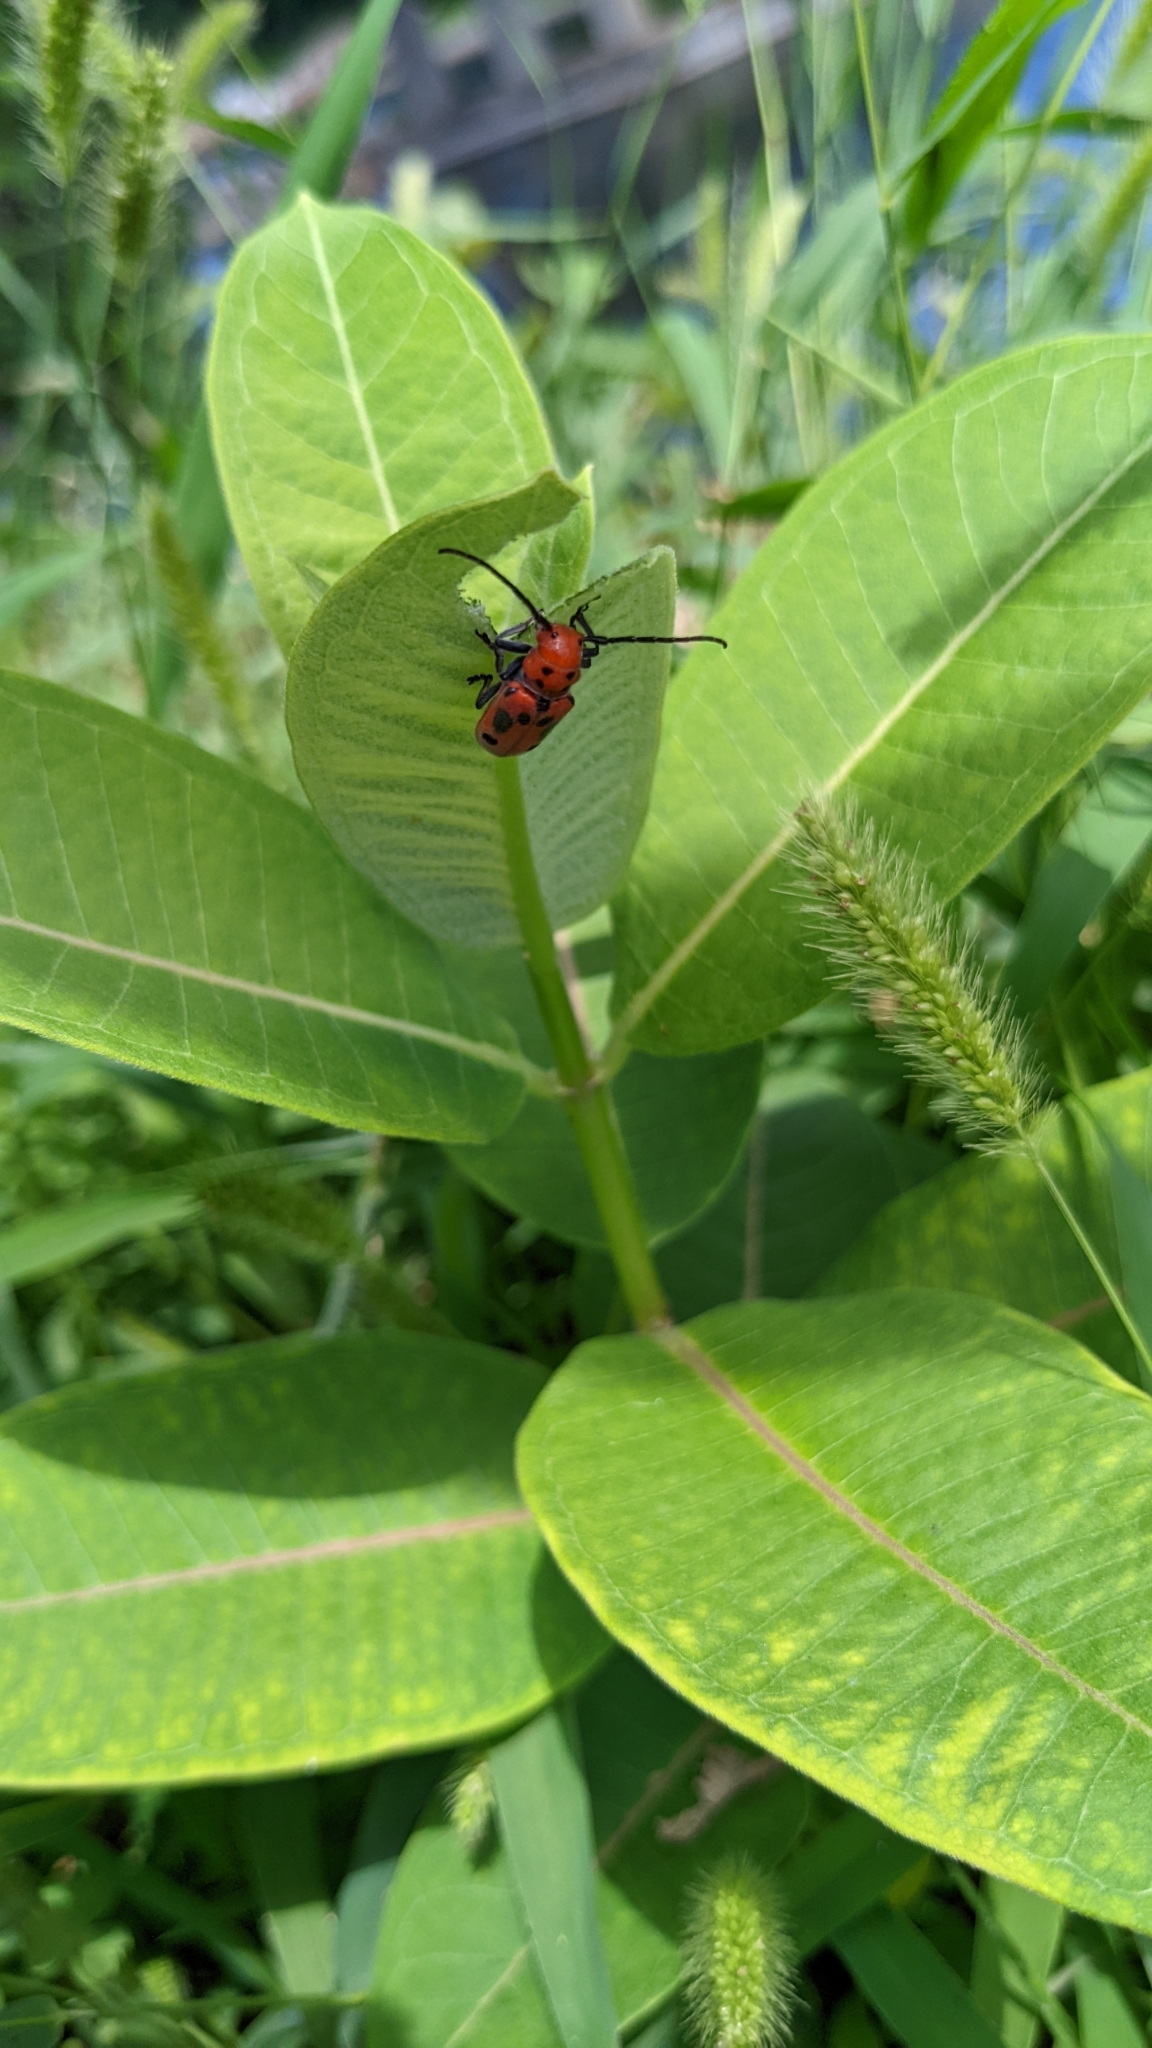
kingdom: Animalia
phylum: Arthropoda
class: Insecta
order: Coleoptera
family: Cerambycidae
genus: Tetraopes
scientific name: Tetraopes tetrophthalmus
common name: Red milkweed beetle
